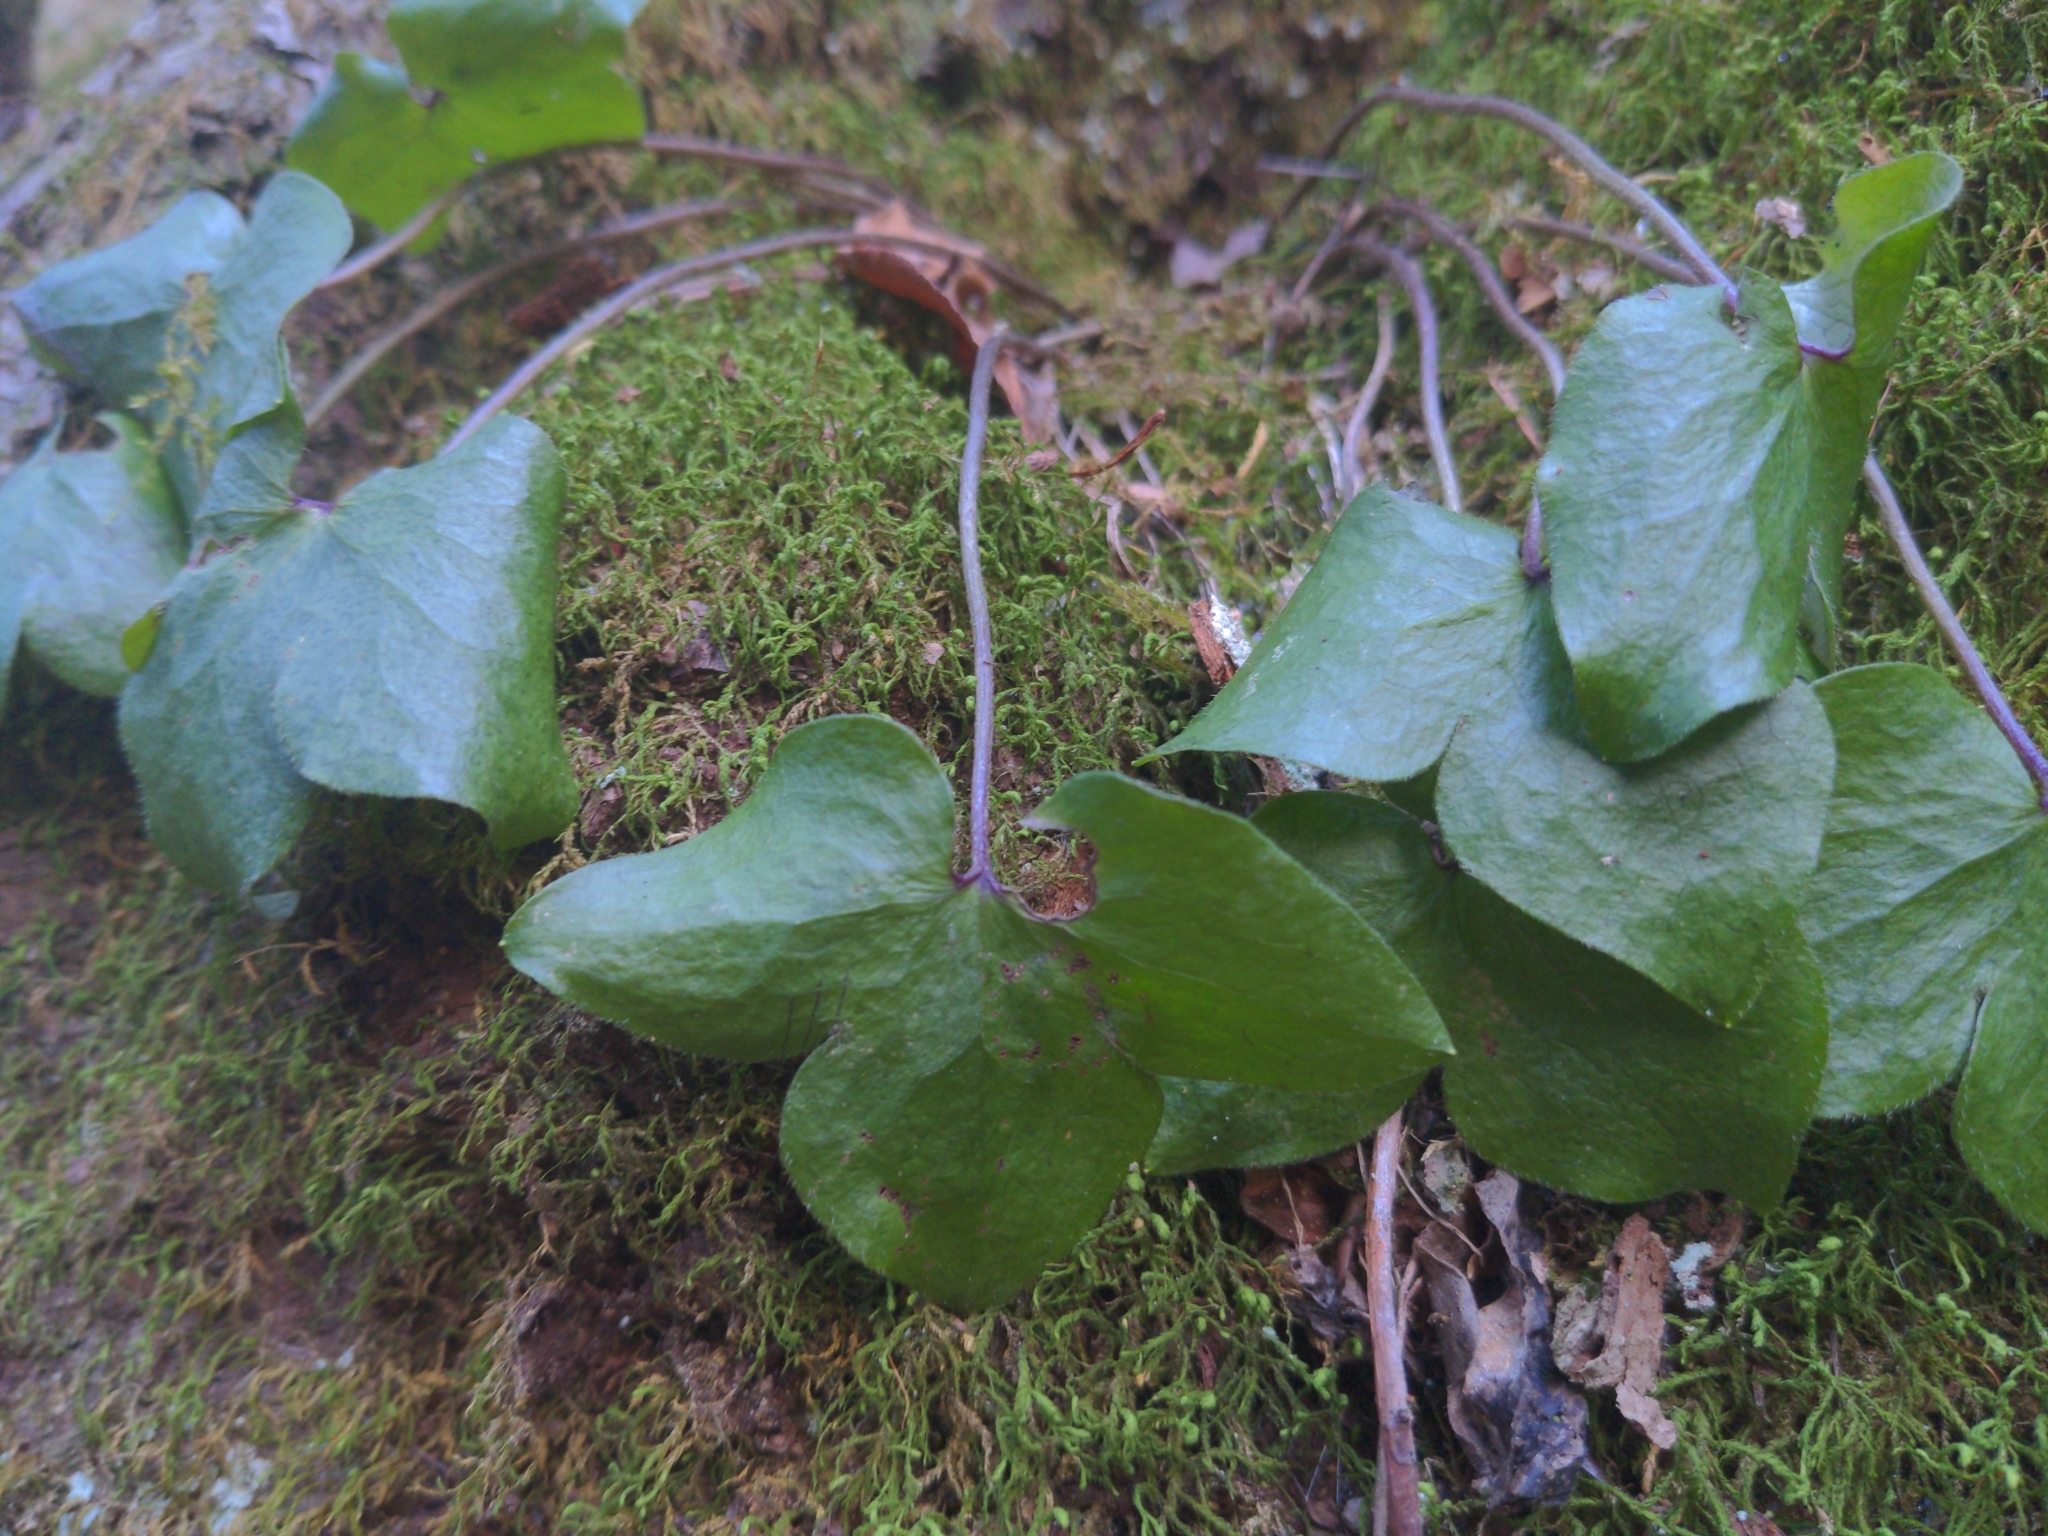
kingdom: Plantae
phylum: Tracheophyta
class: Magnoliopsida
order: Ranunculales
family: Ranunculaceae
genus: Hepatica
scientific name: Hepatica acutiloba
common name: Sharp-lobed hepatica
